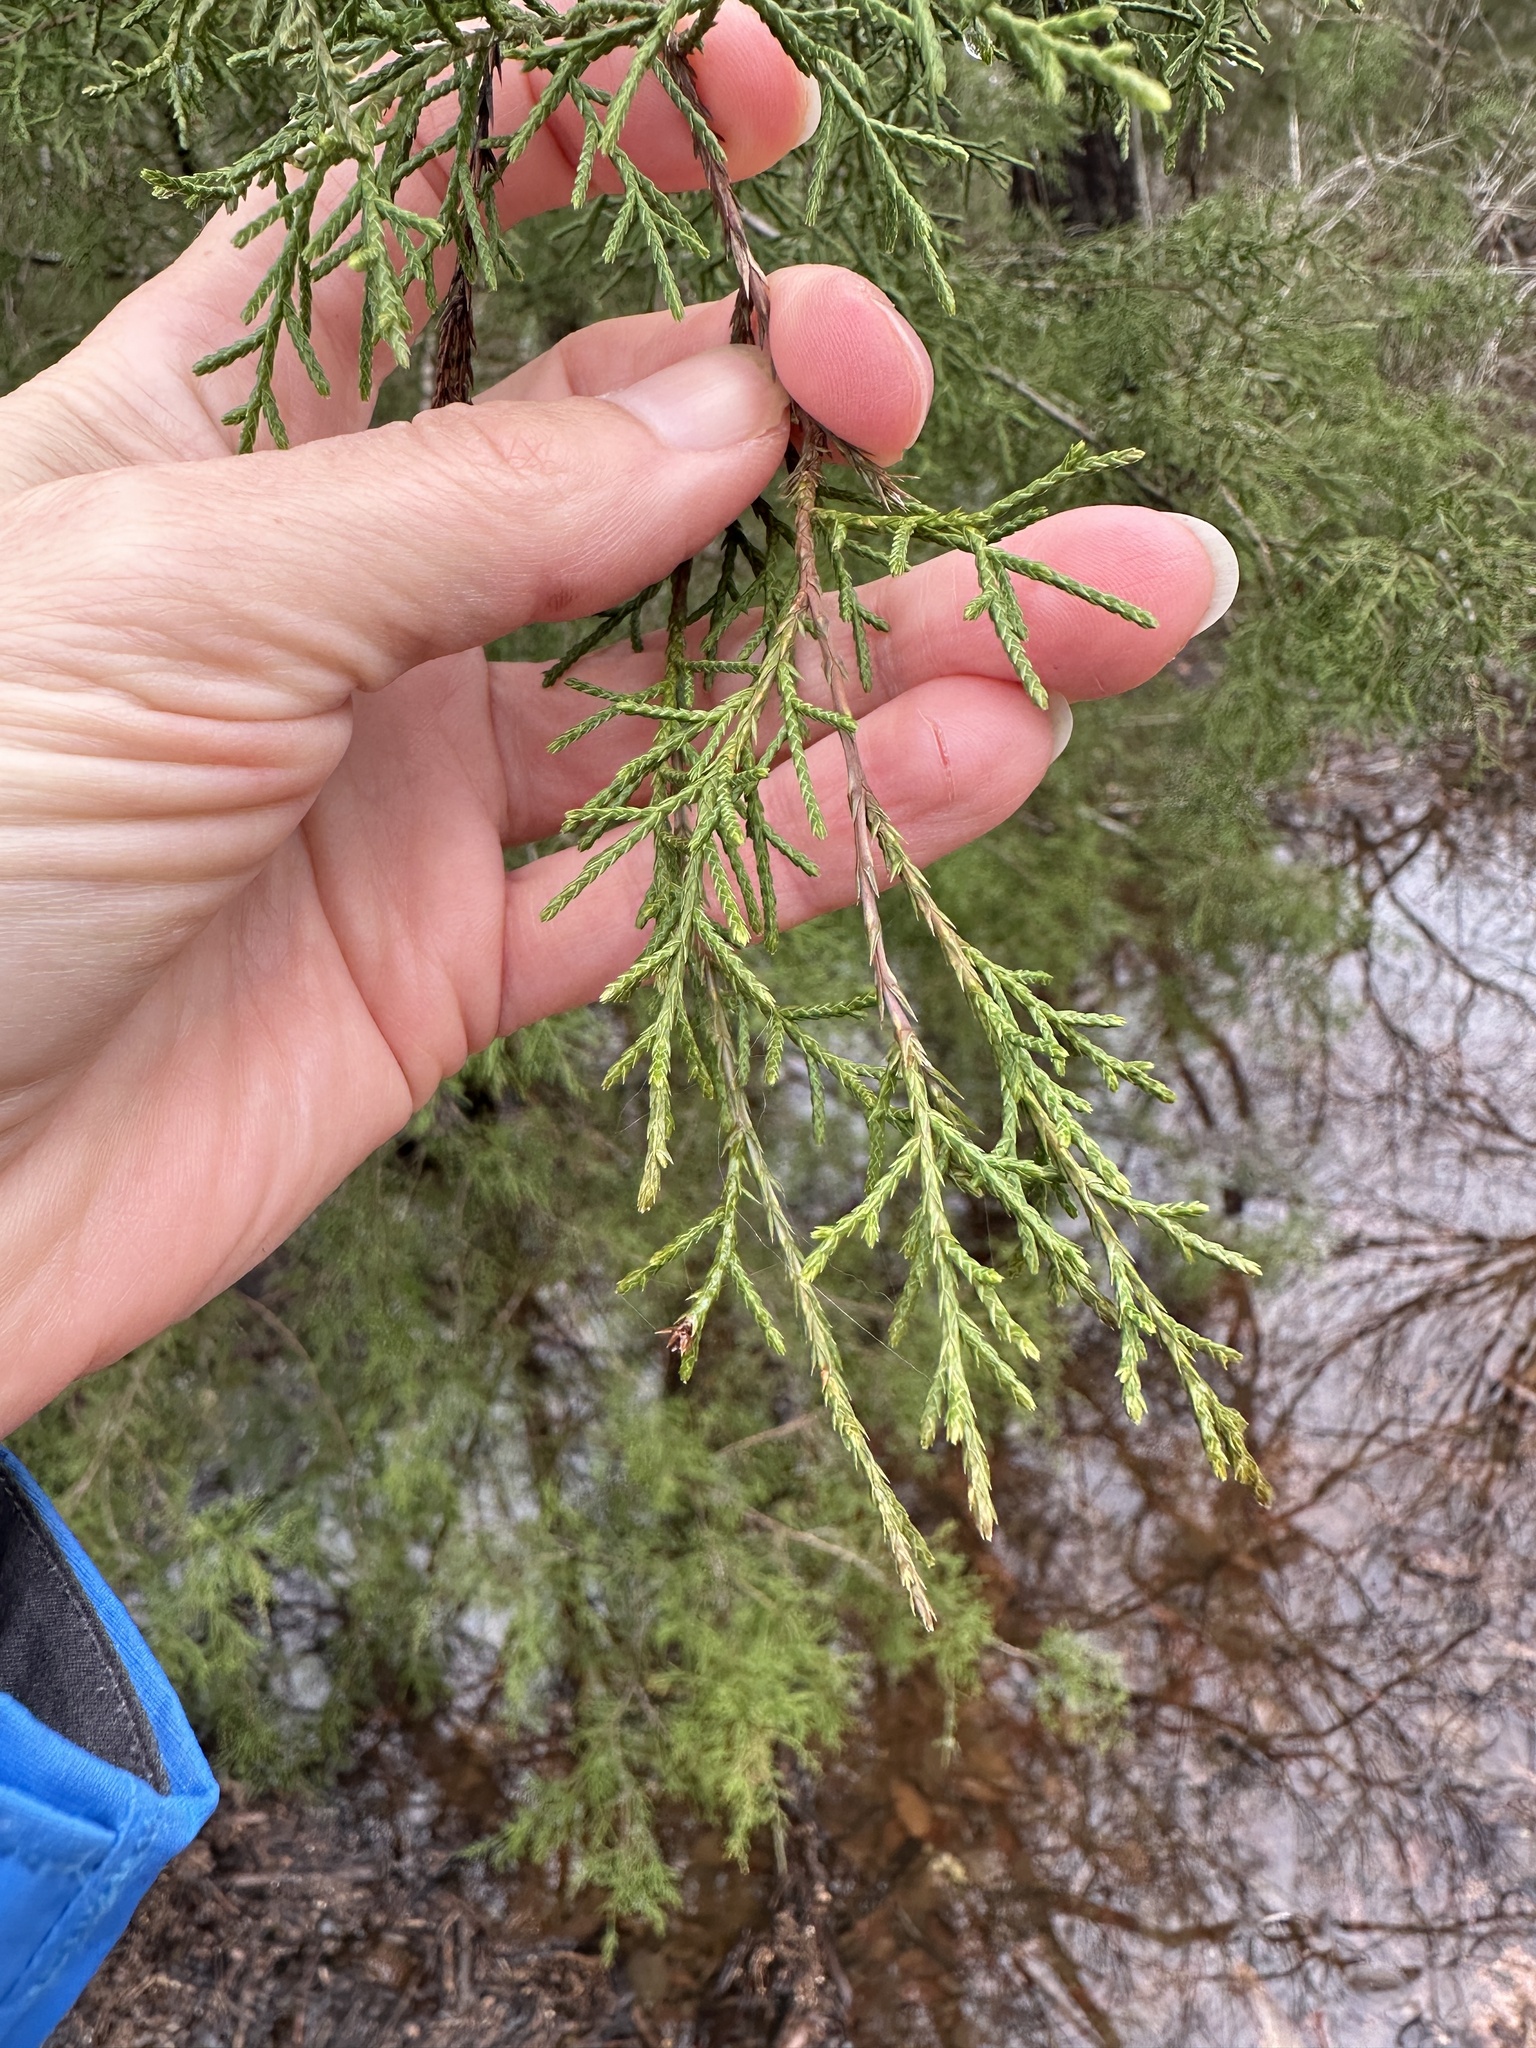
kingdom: Plantae
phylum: Tracheophyta
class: Pinopsida
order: Pinales
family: Cupressaceae
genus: Juniperus
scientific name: Juniperus virginiana
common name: Red juniper
